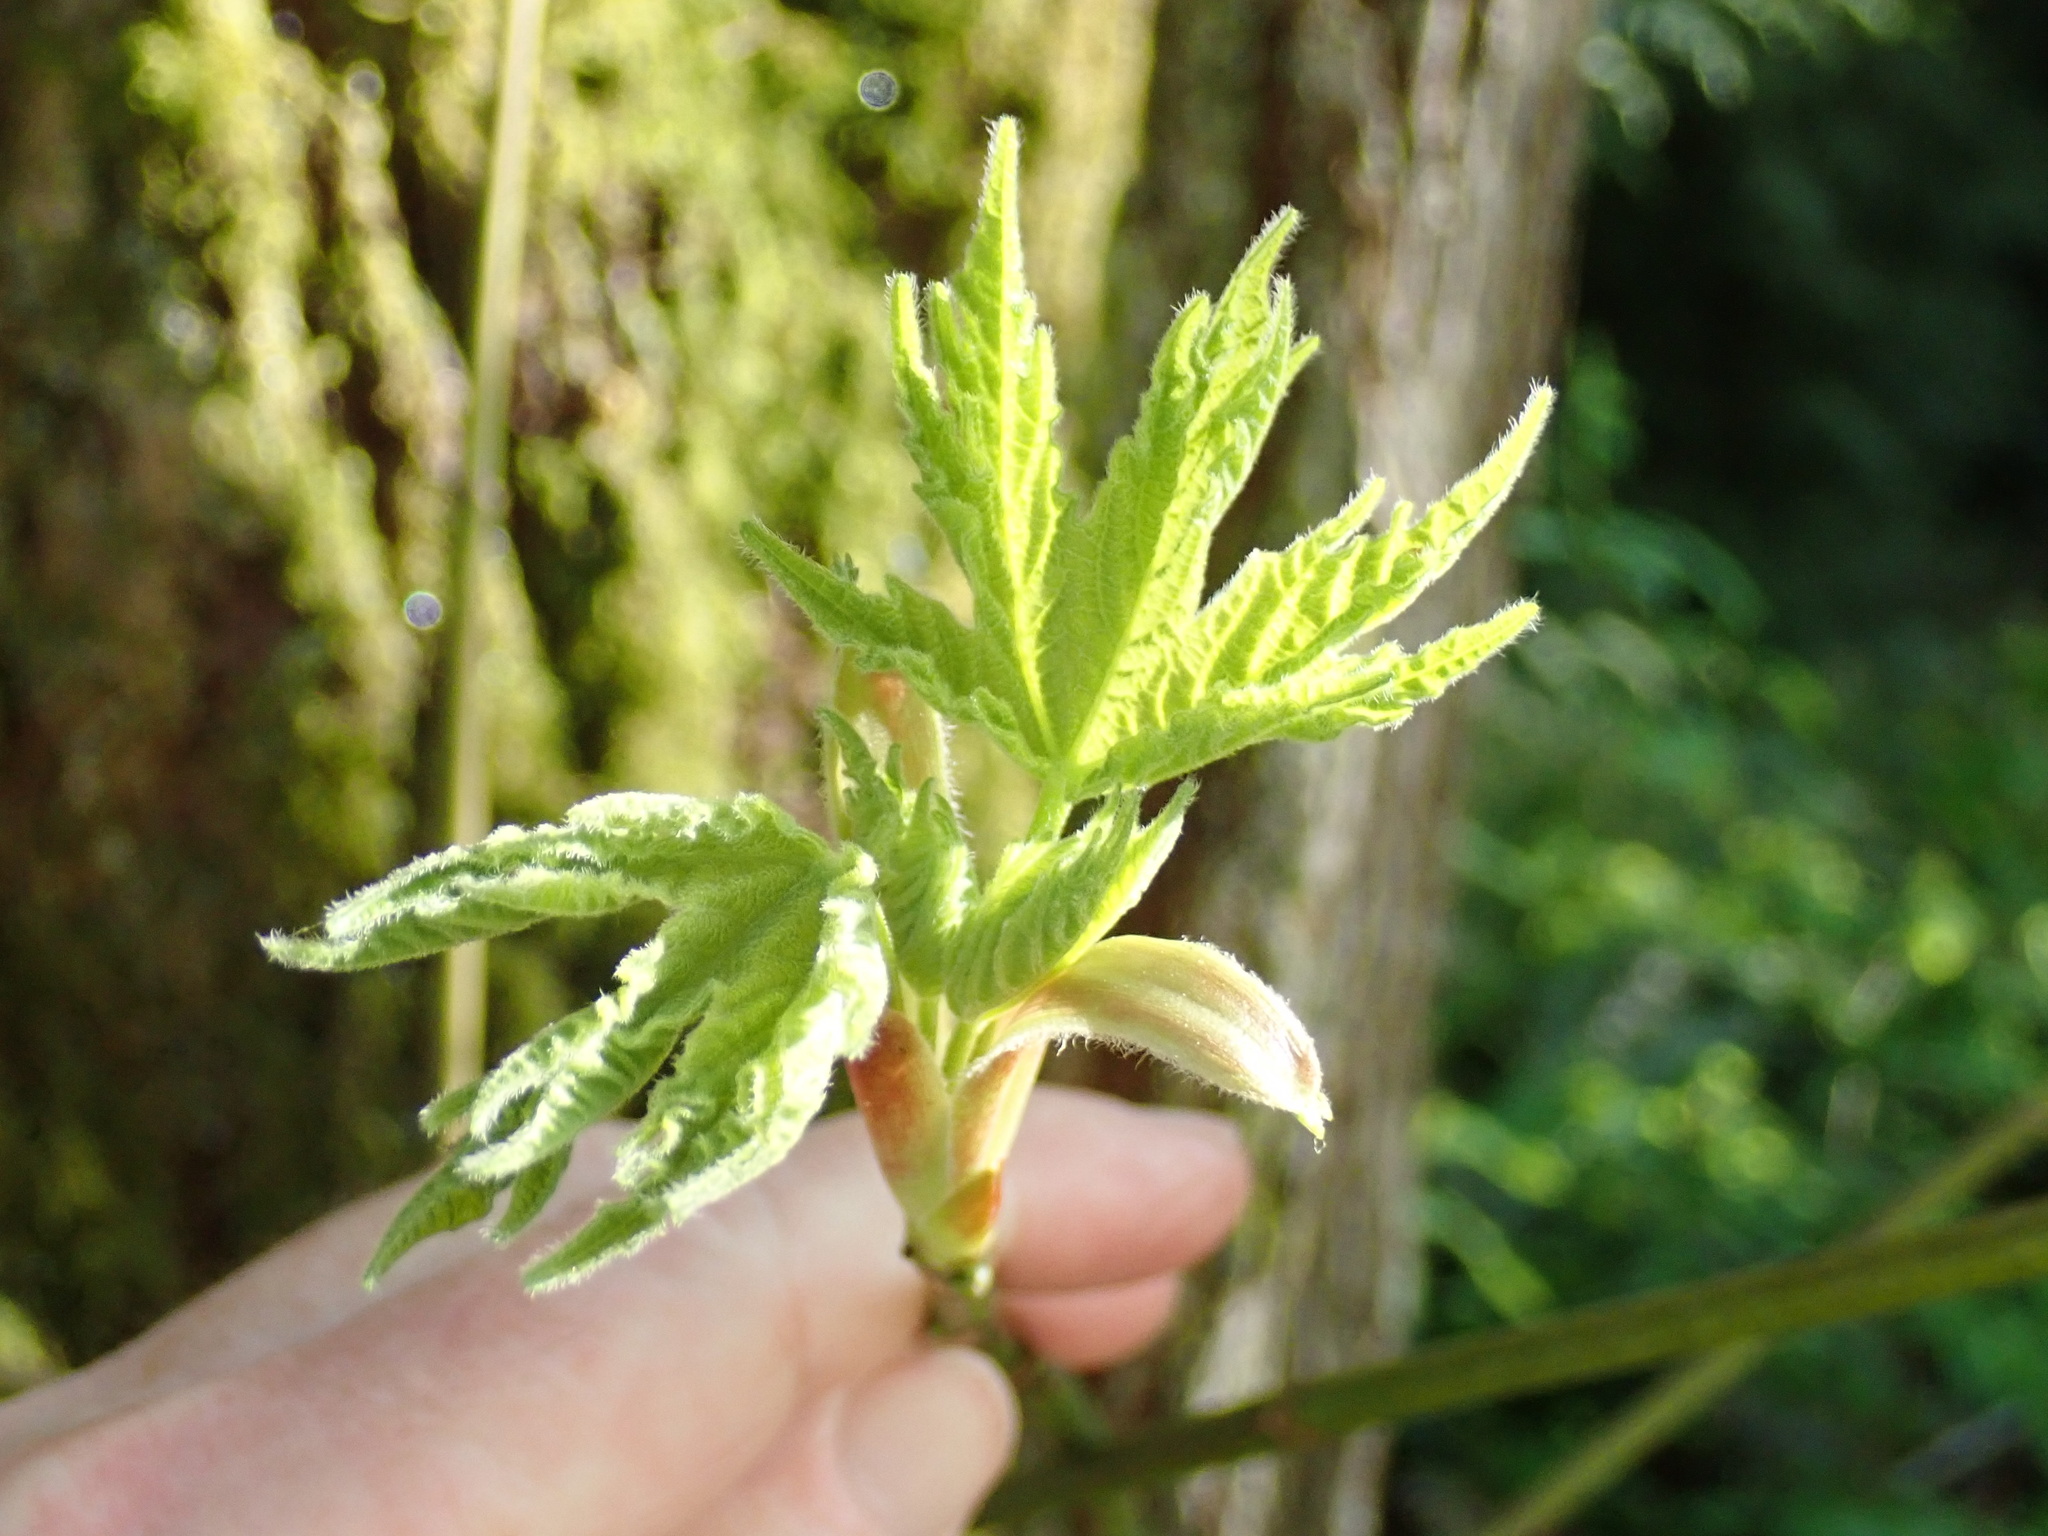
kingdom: Plantae
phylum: Tracheophyta
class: Magnoliopsida
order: Sapindales
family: Sapindaceae
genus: Acer
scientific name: Acer macrophyllum
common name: Oregon maple
